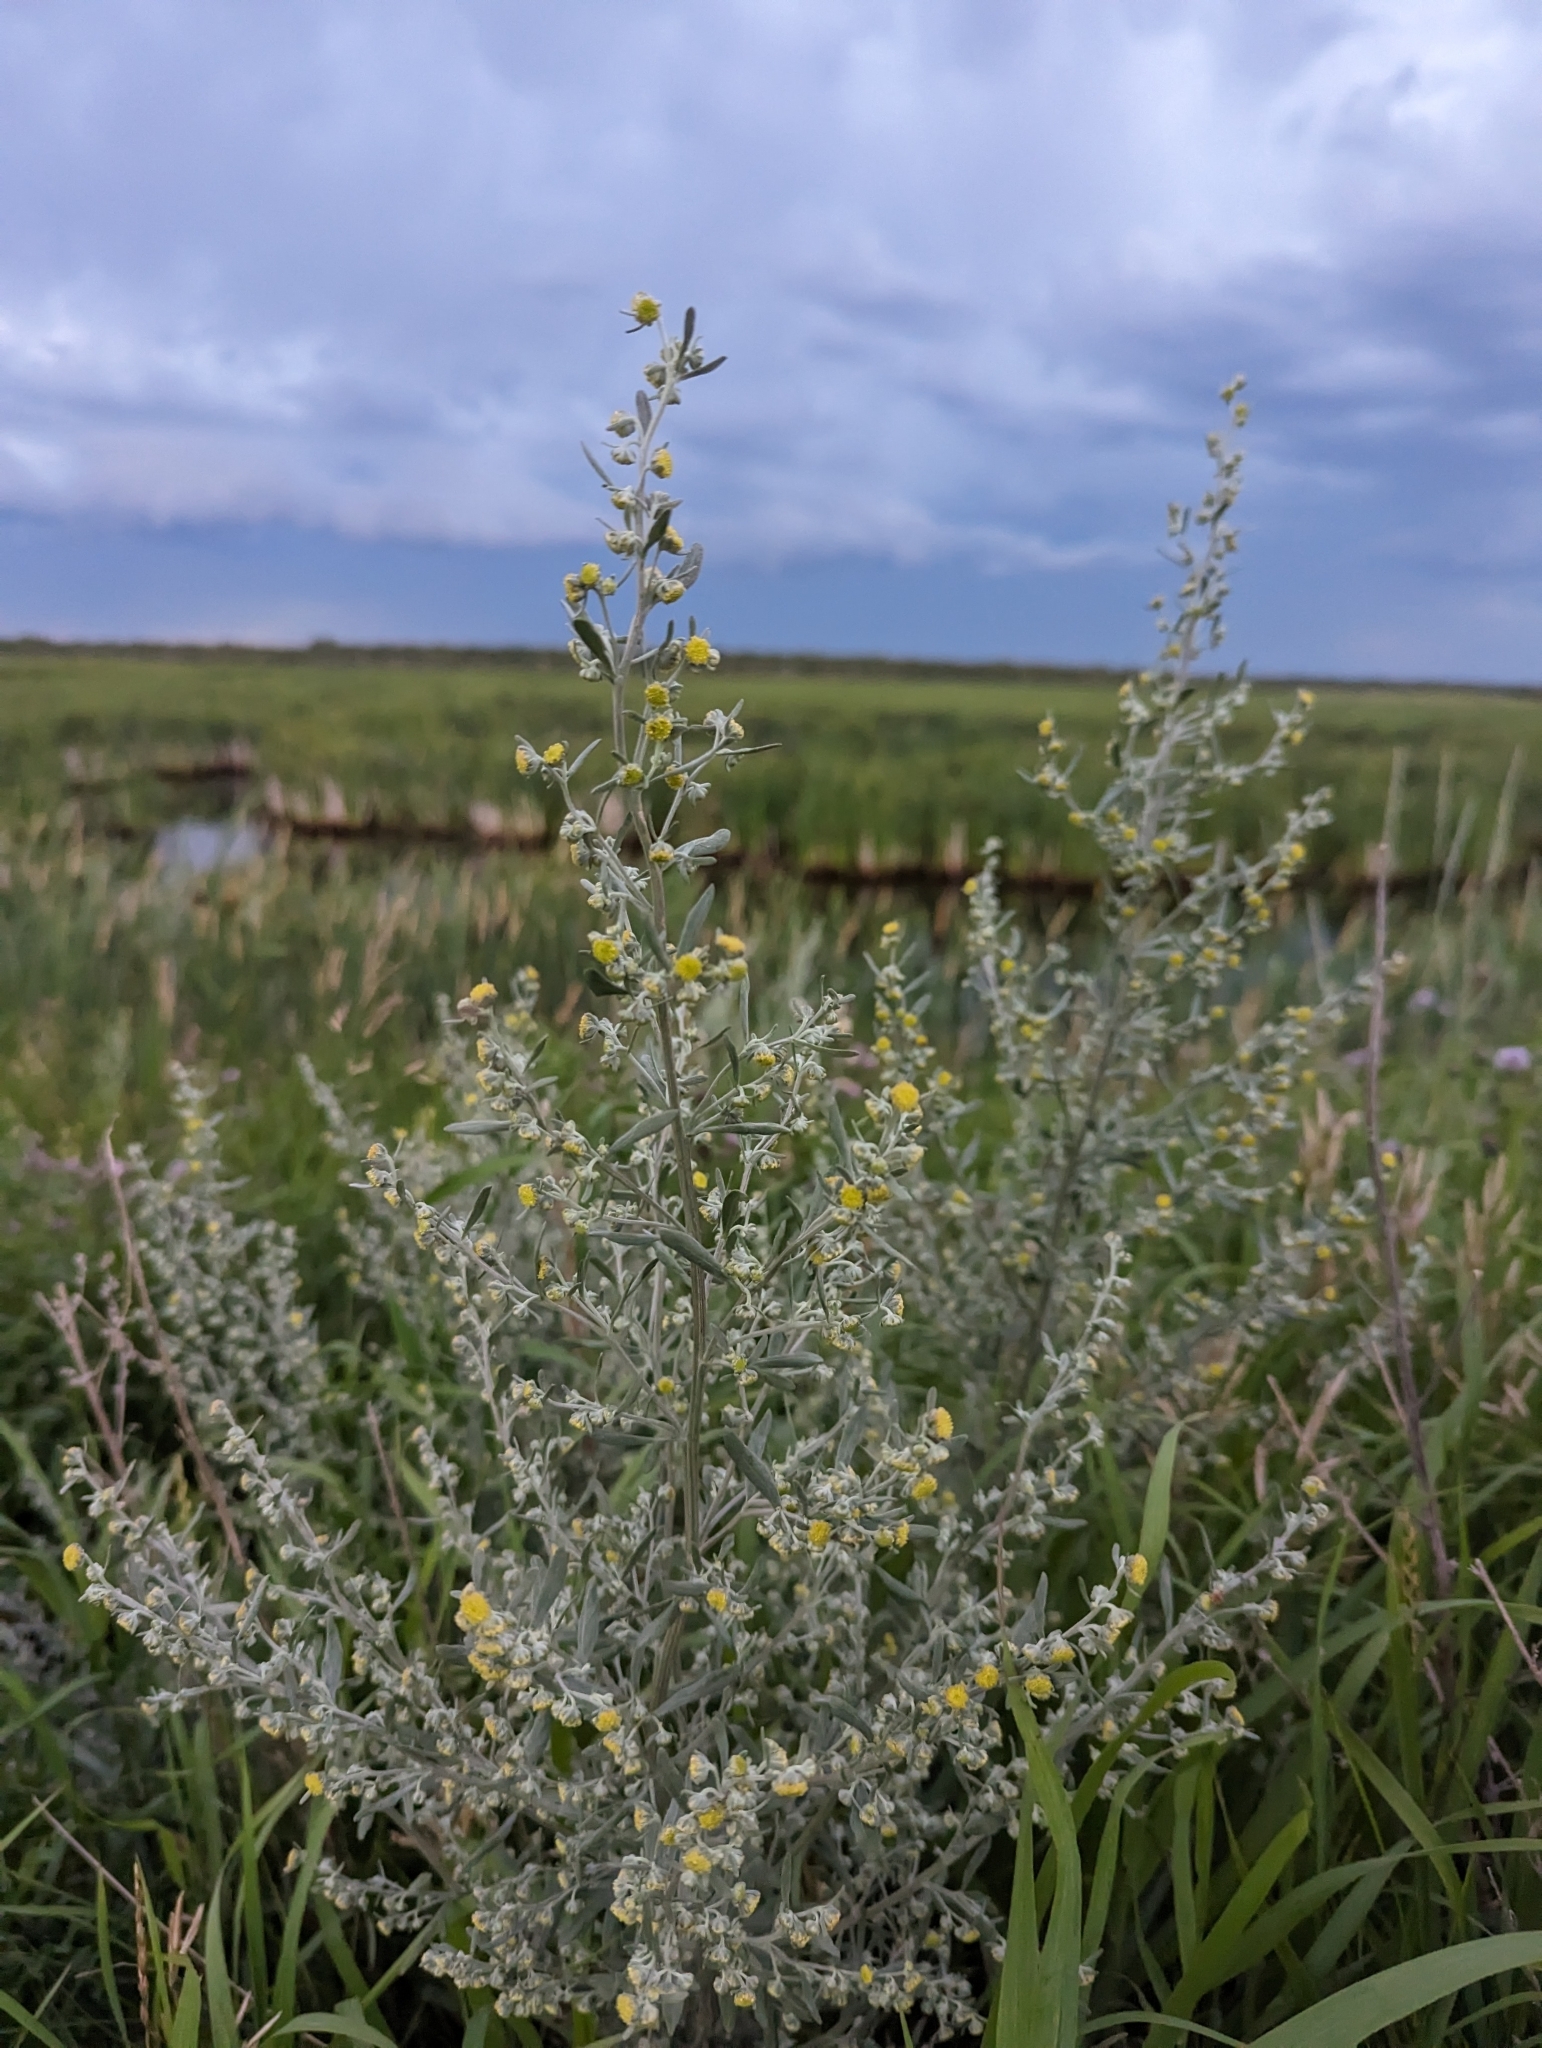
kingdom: Plantae
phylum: Tracheophyta
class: Magnoliopsida
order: Asterales
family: Asteraceae
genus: Artemisia
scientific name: Artemisia absinthium
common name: Wormwood
